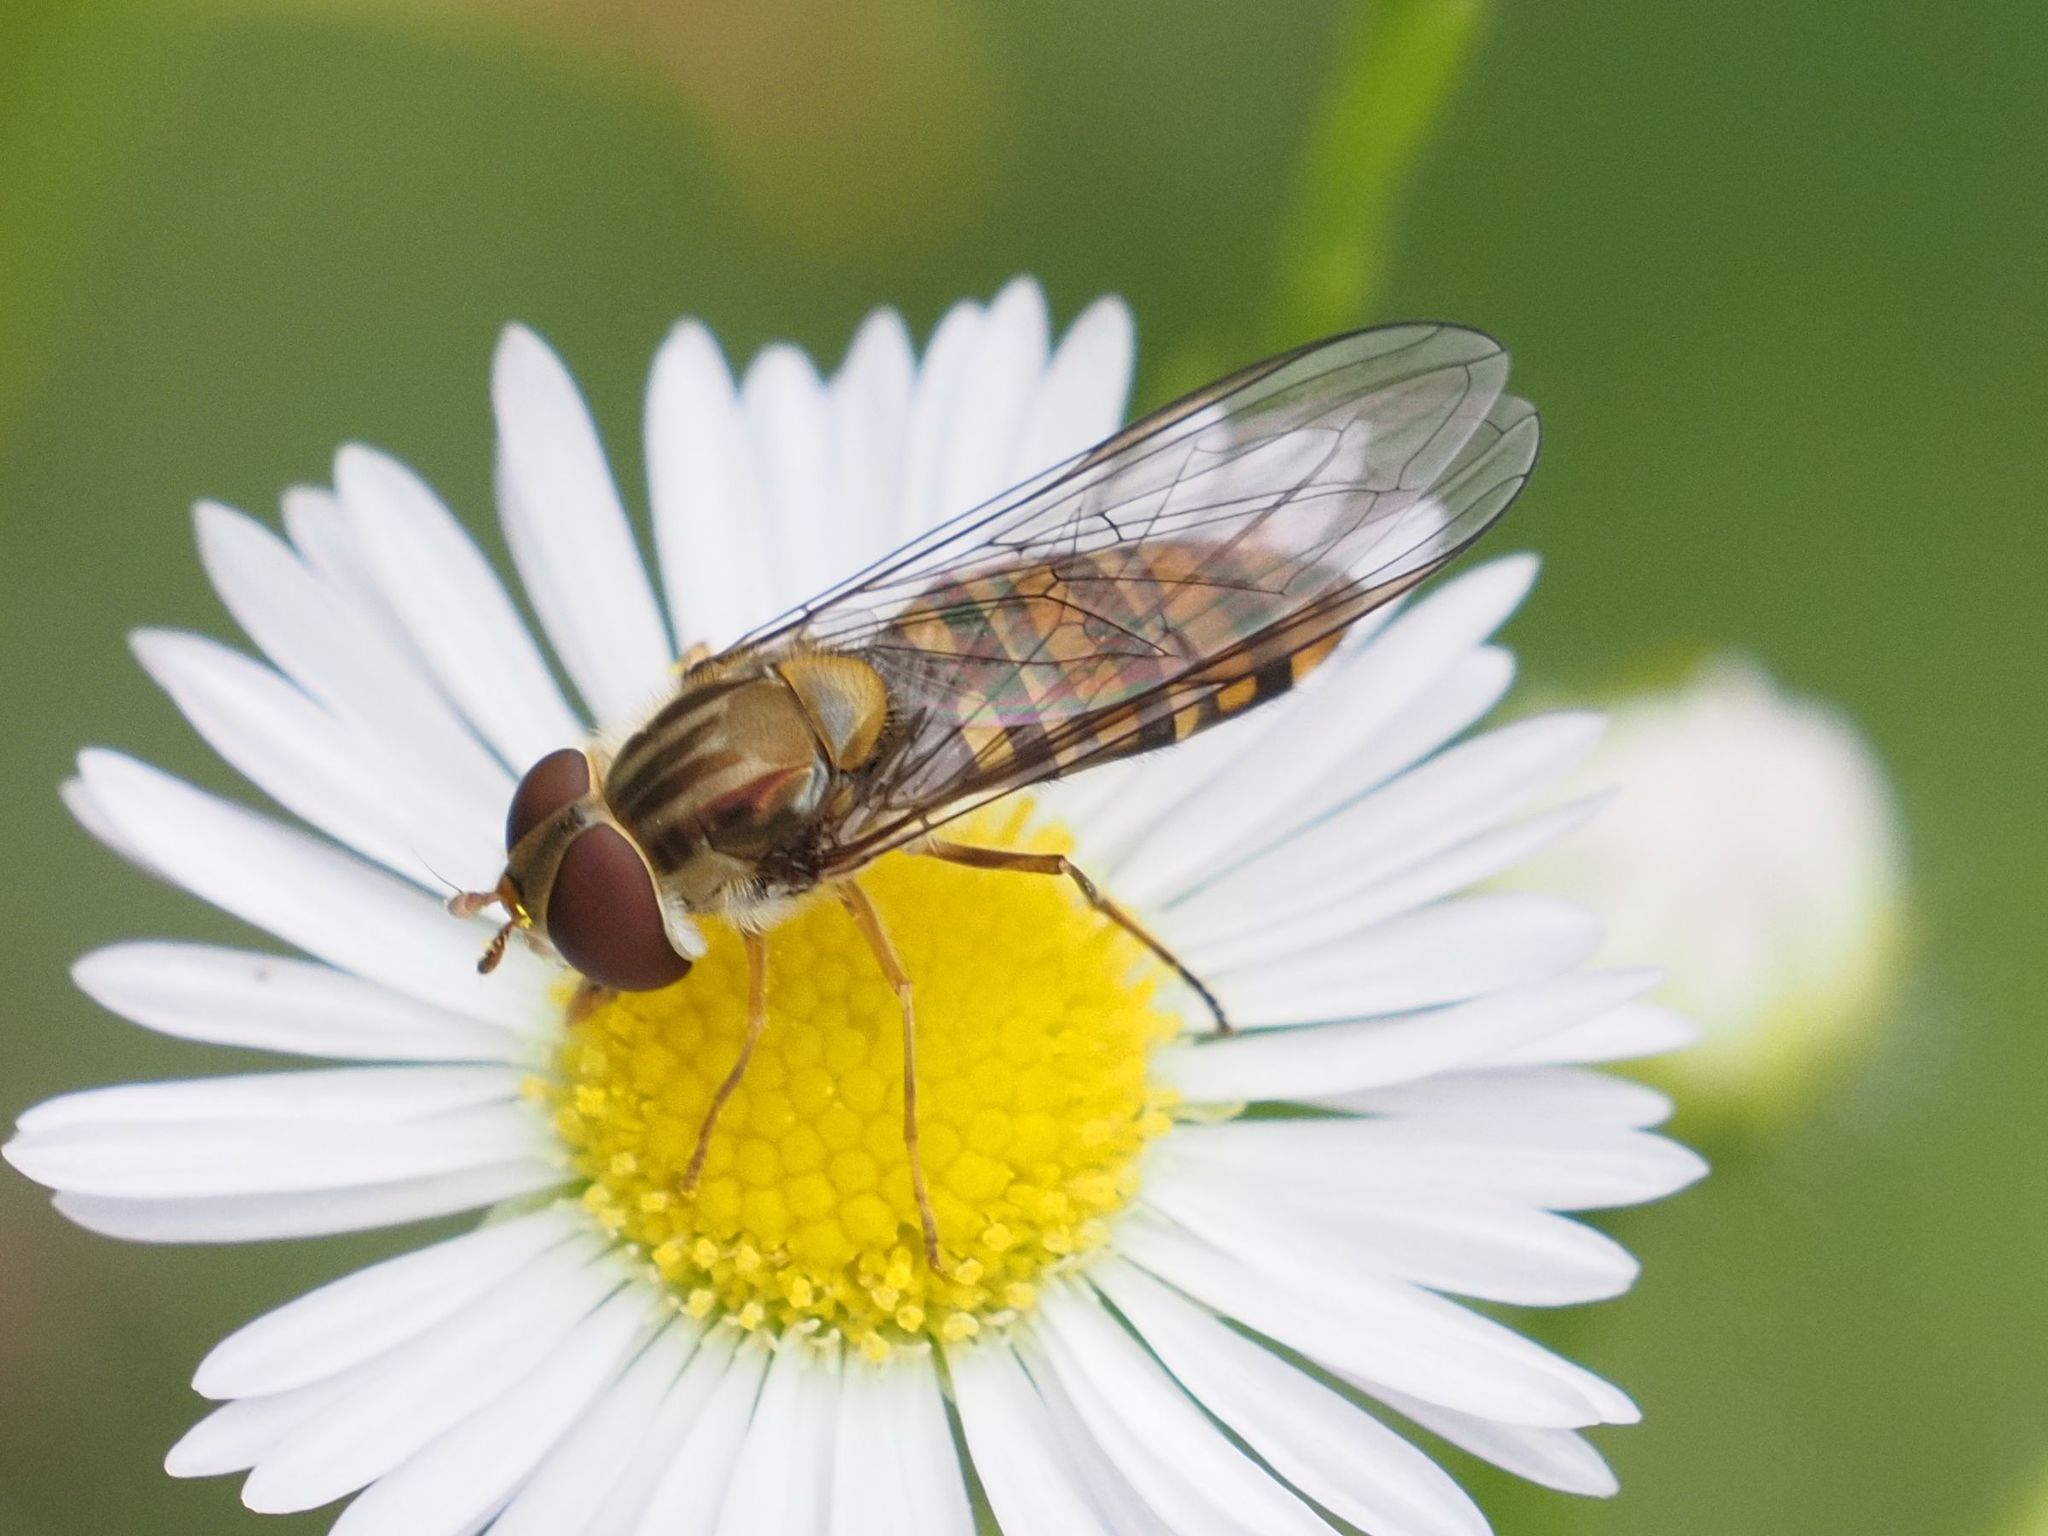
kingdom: Animalia
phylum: Arthropoda
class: Insecta
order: Diptera
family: Syrphidae
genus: Episyrphus
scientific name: Episyrphus balteatus
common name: Marmalade hoverfly
